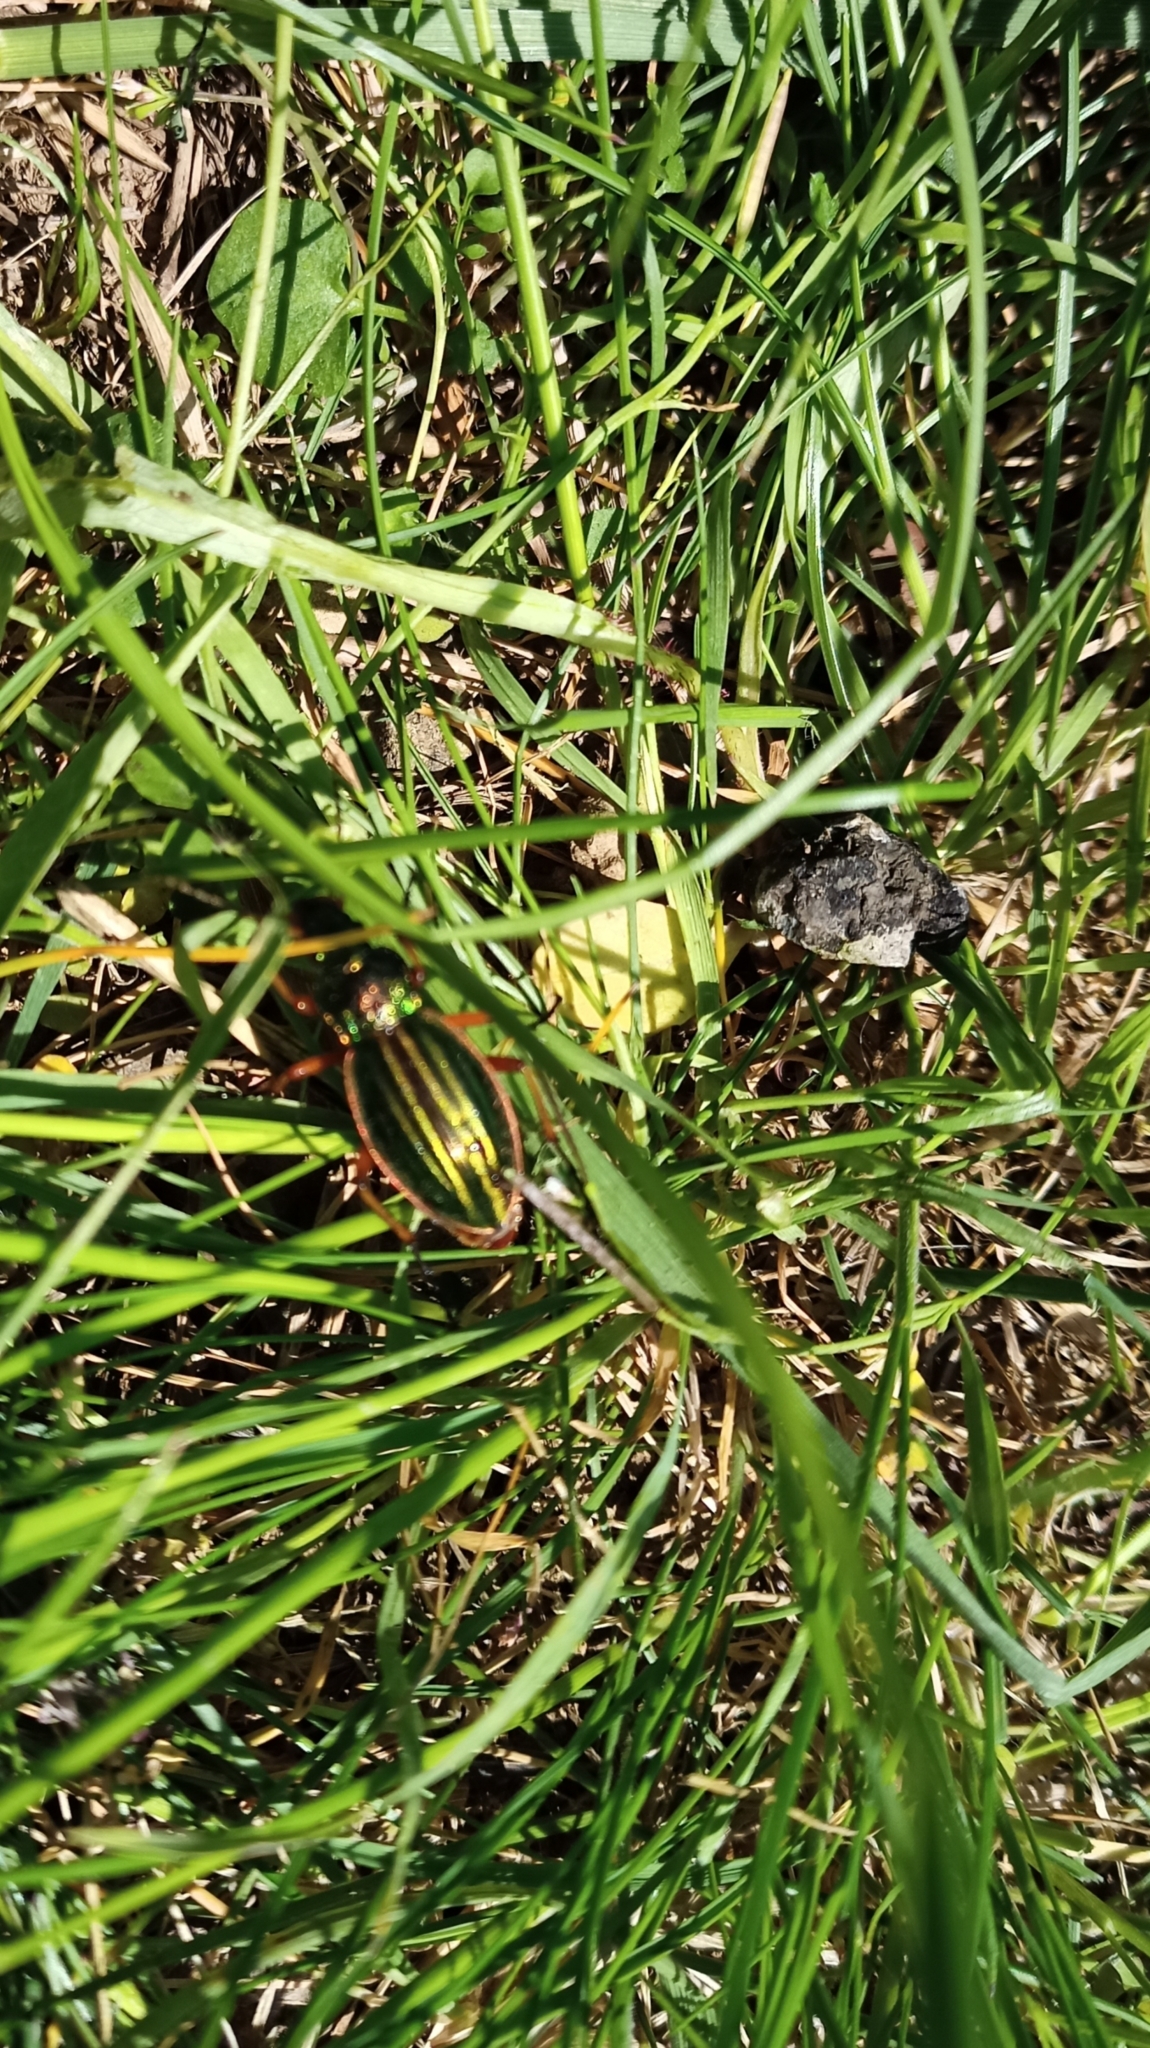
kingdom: Animalia
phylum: Arthropoda
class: Insecta
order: Coleoptera
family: Carabidae
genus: Carabus
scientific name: Carabus auratus
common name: Golden ground beetle
